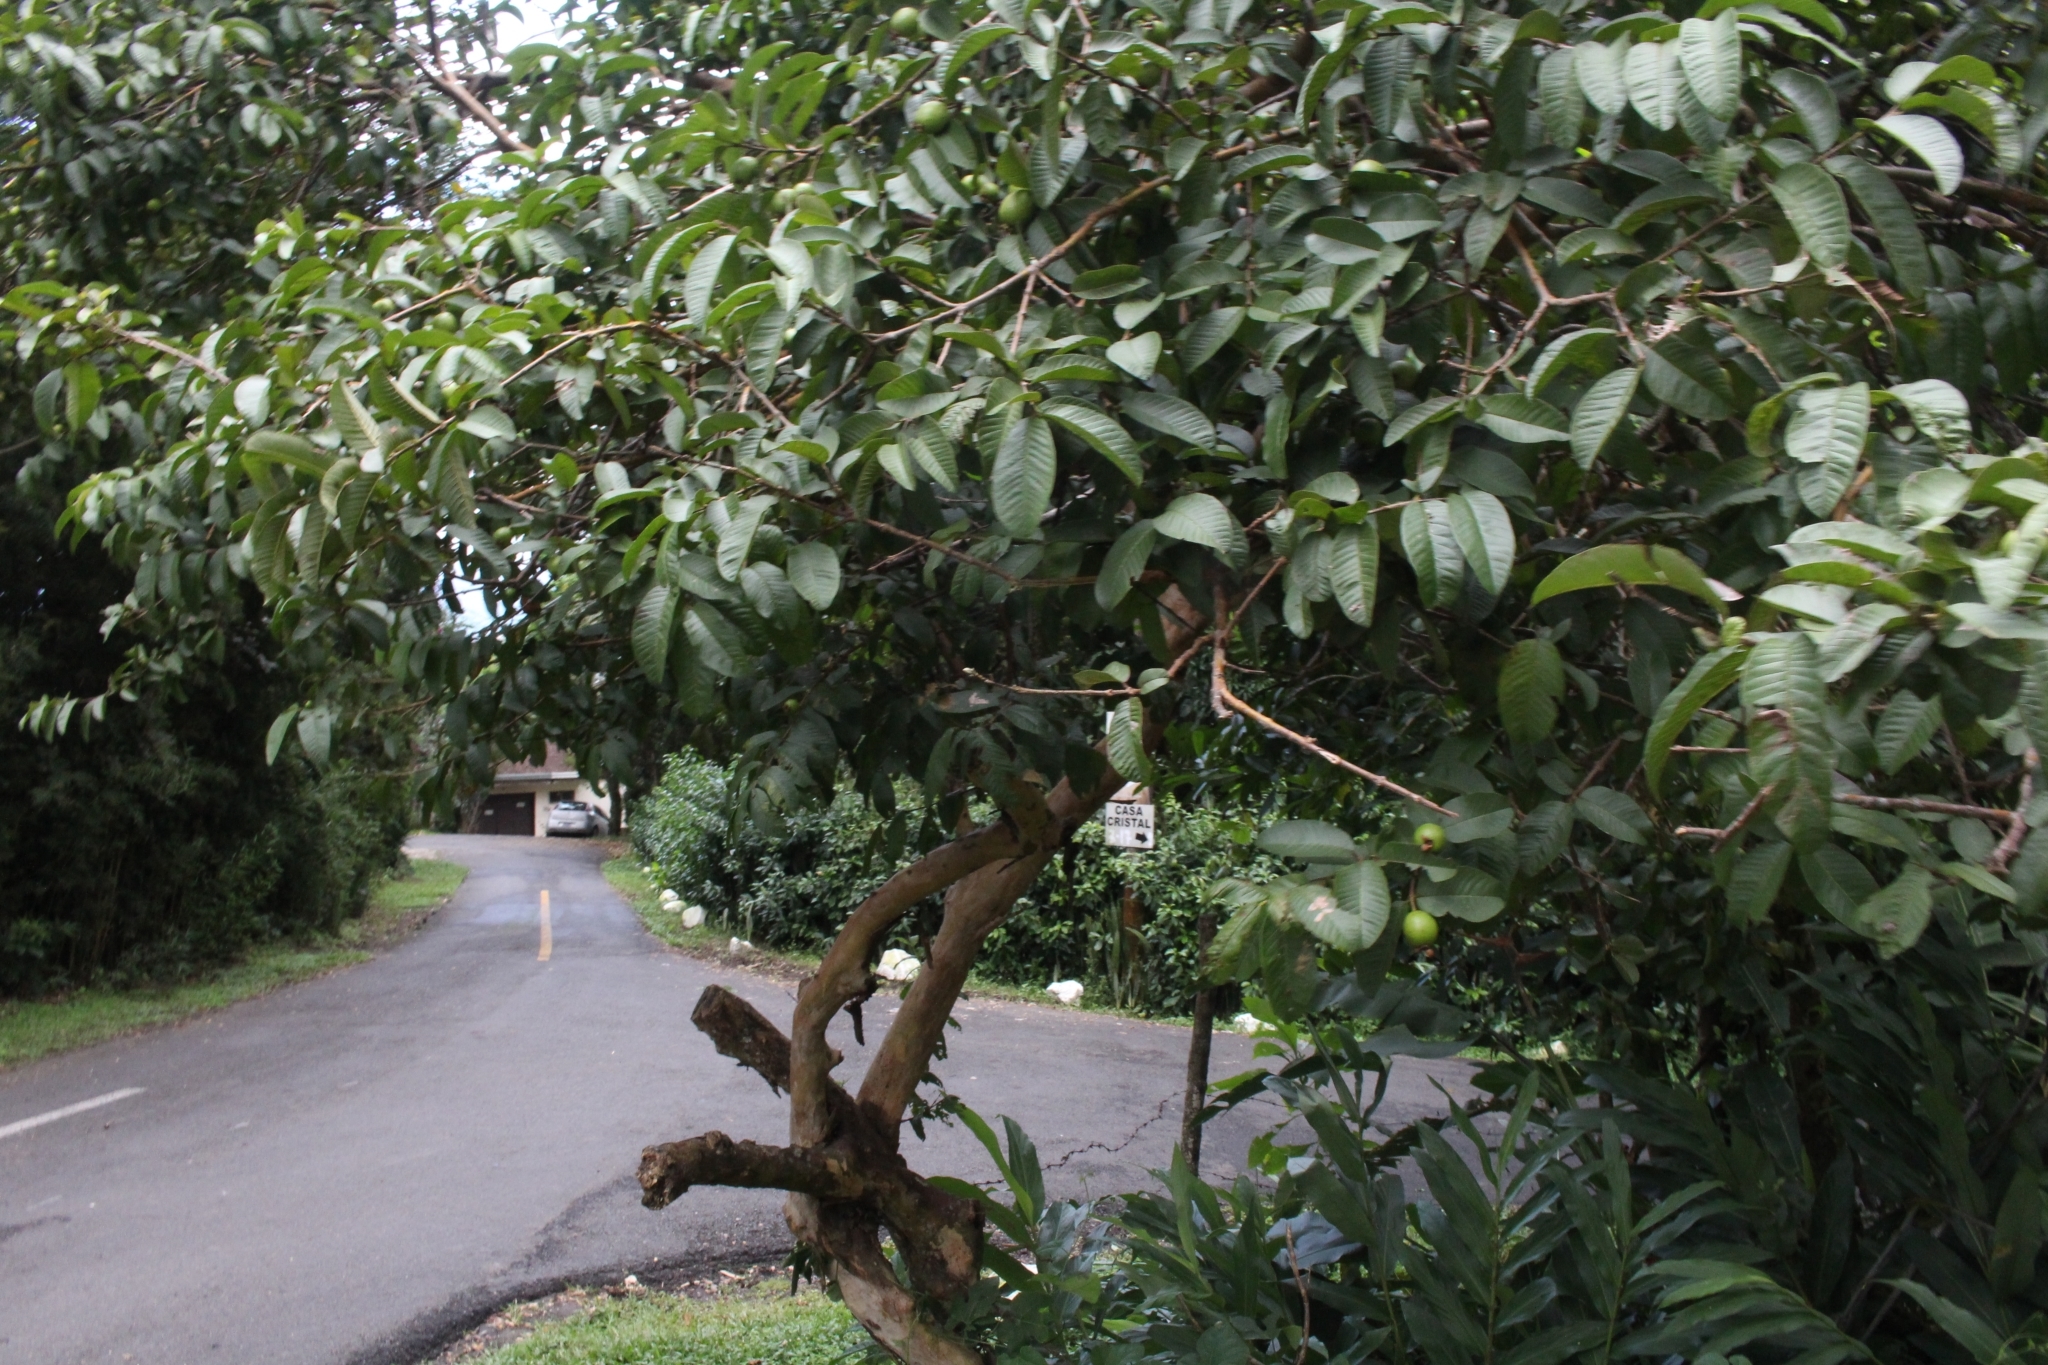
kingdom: Plantae
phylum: Tracheophyta
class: Magnoliopsida
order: Myrtales
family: Myrtaceae
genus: Psidium
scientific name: Psidium guajava
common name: Guava
